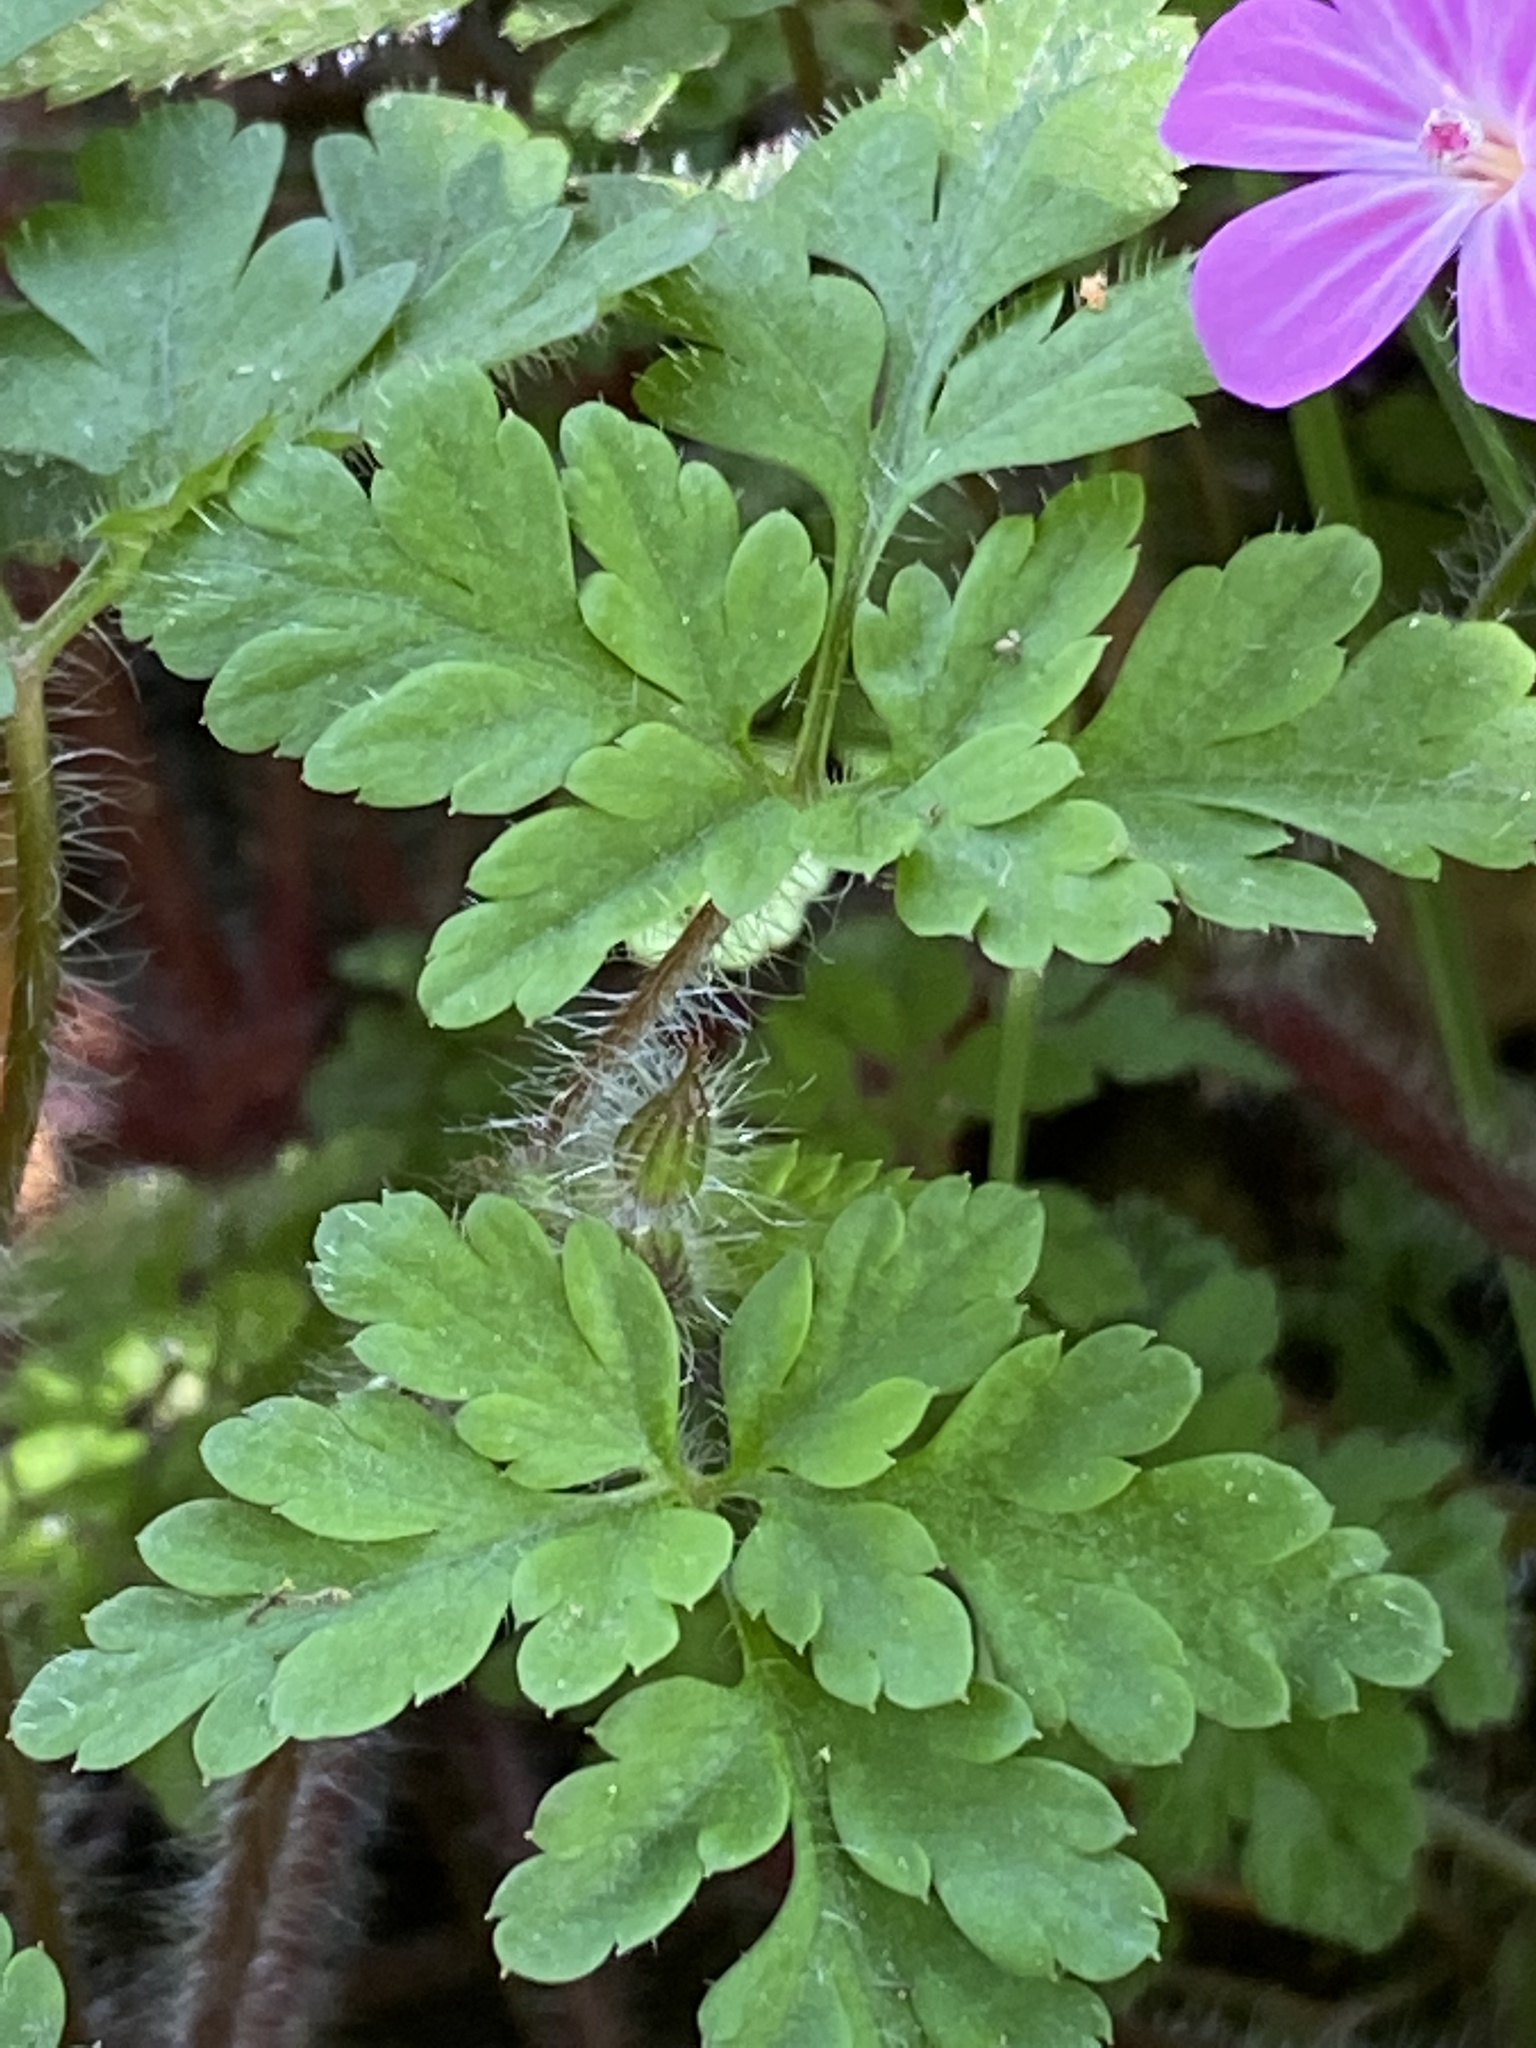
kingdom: Plantae
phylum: Tracheophyta
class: Magnoliopsida
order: Geraniales
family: Geraniaceae
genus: Geranium
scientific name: Geranium robertianum
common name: Herb-robert
